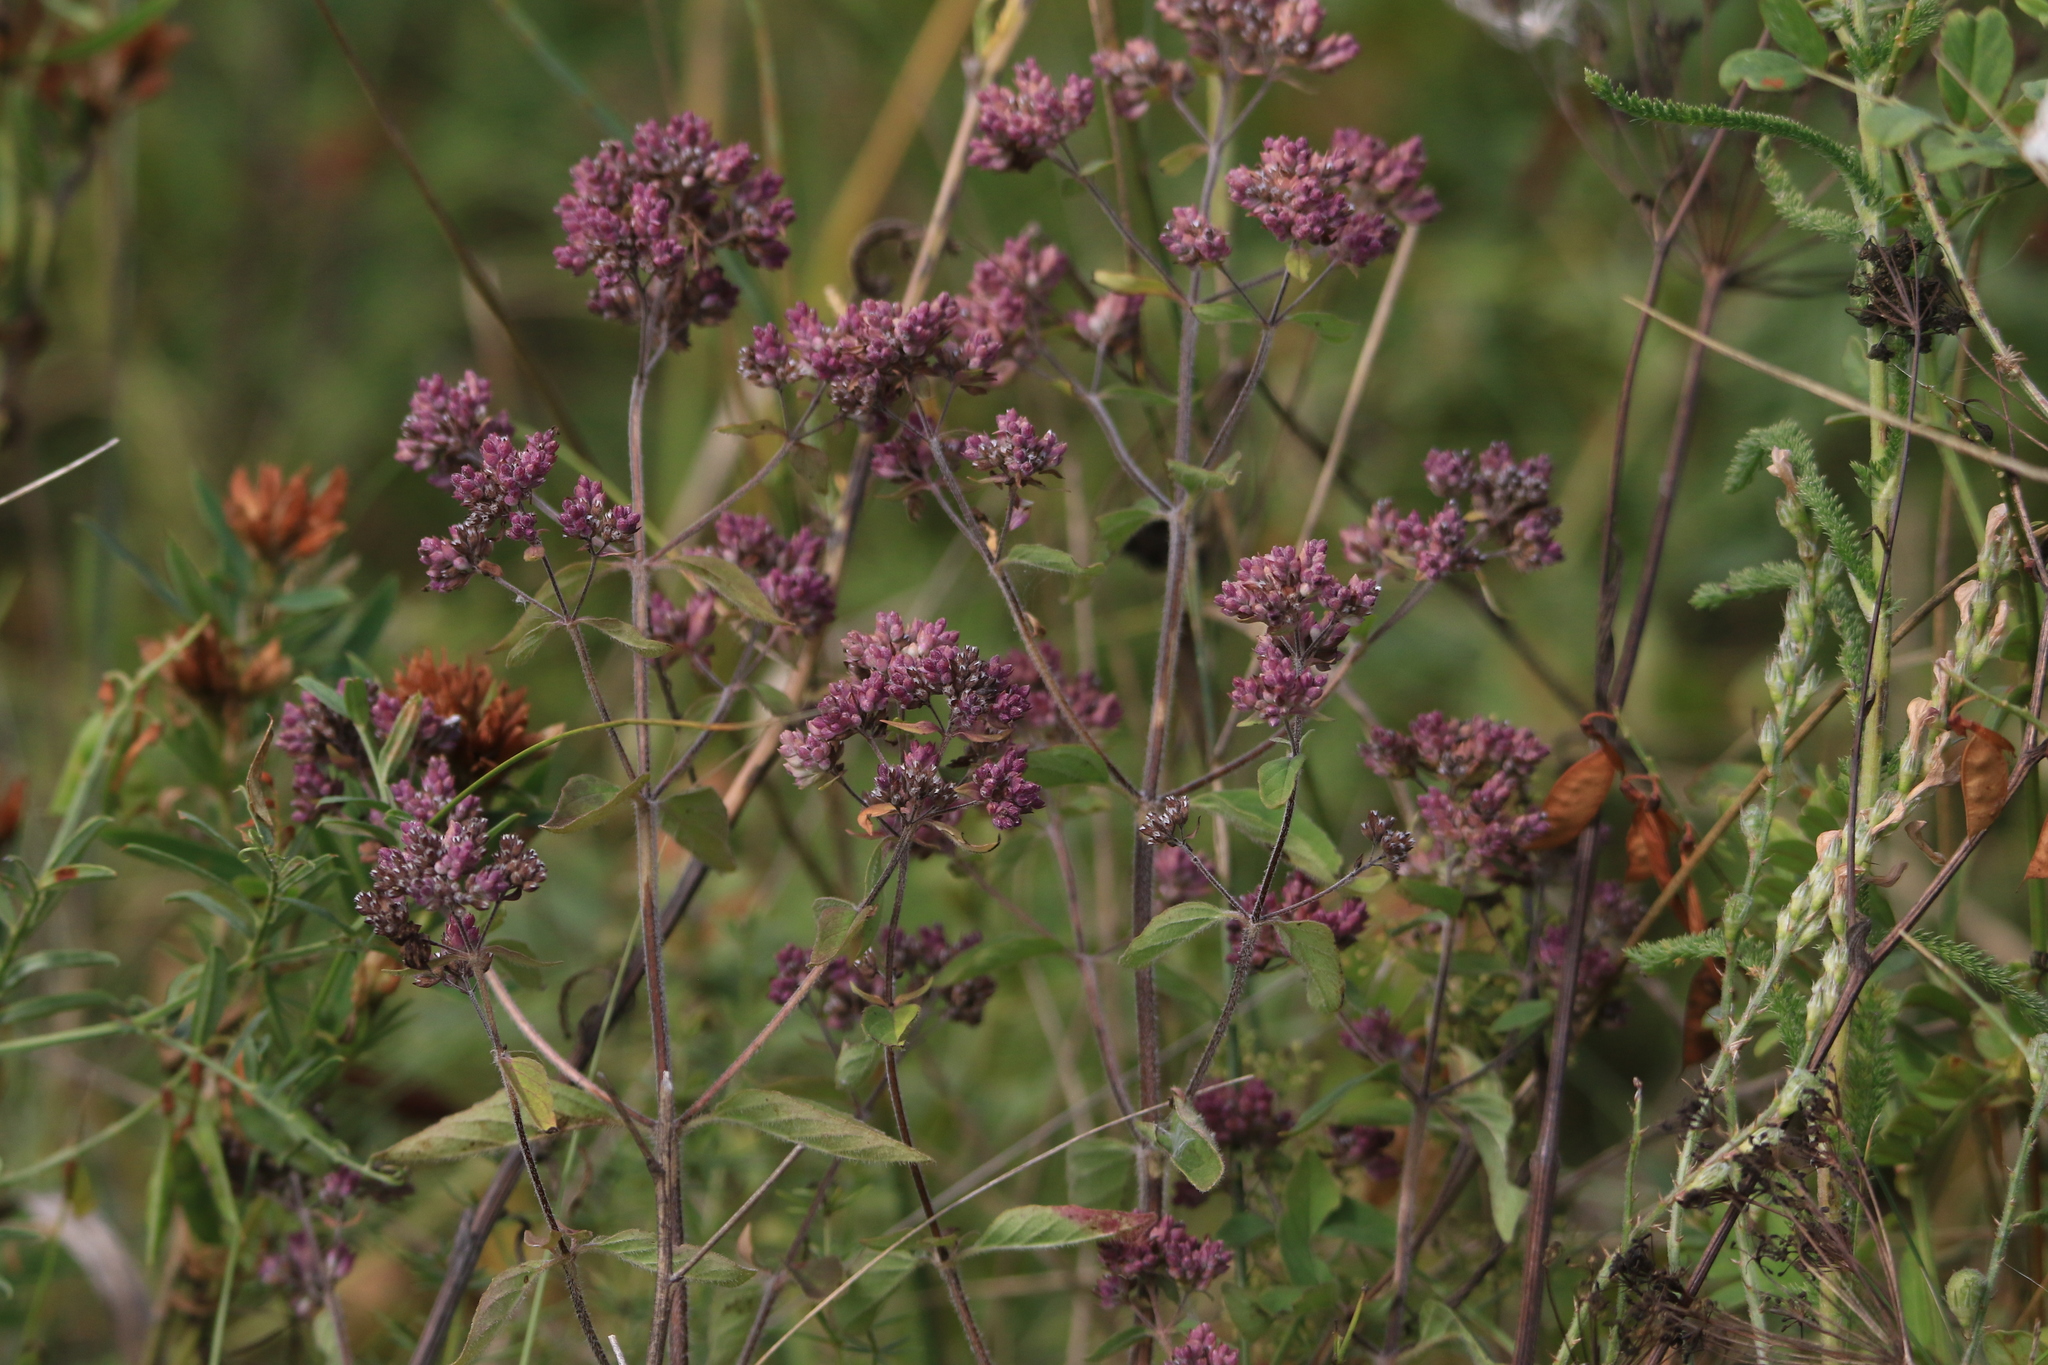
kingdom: Plantae
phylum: Tracheophyta
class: Magnoliopsida
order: Lamiales
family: Lamiaceae
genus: Origanum
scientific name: Origanum vulgare
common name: Wild marjoram
